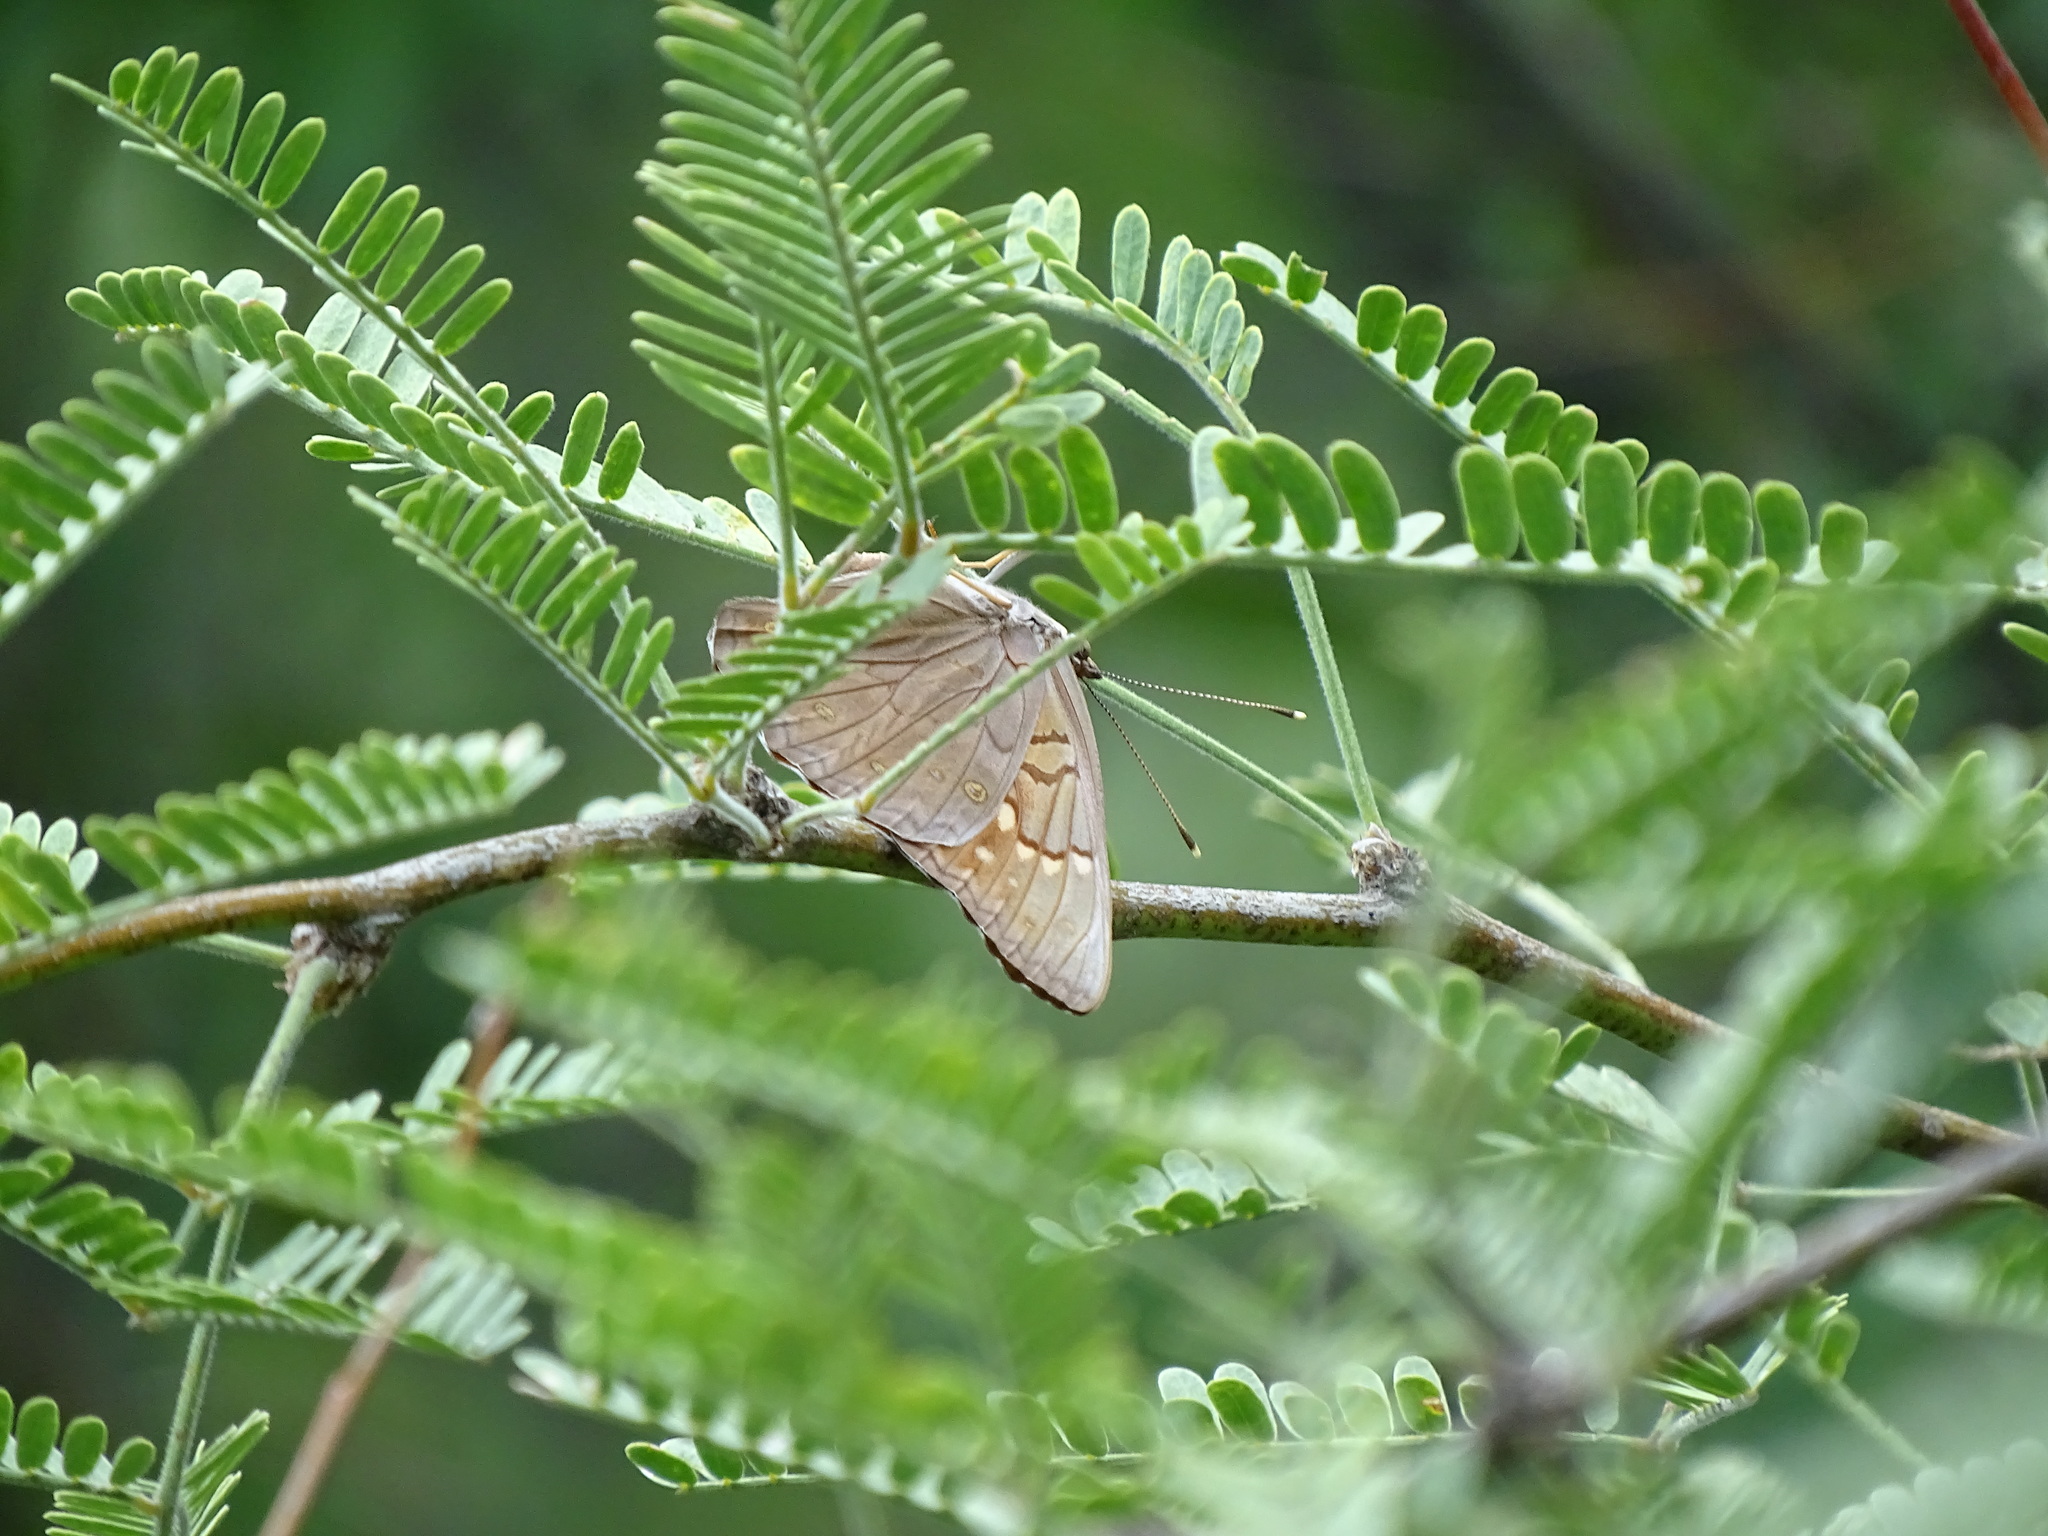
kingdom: Animalia
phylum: Arthropoda
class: Insecta
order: Lepidoptera
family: Nymphalidae
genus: Asterocampa
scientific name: Asterocampa clyton
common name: Tawny emperor
